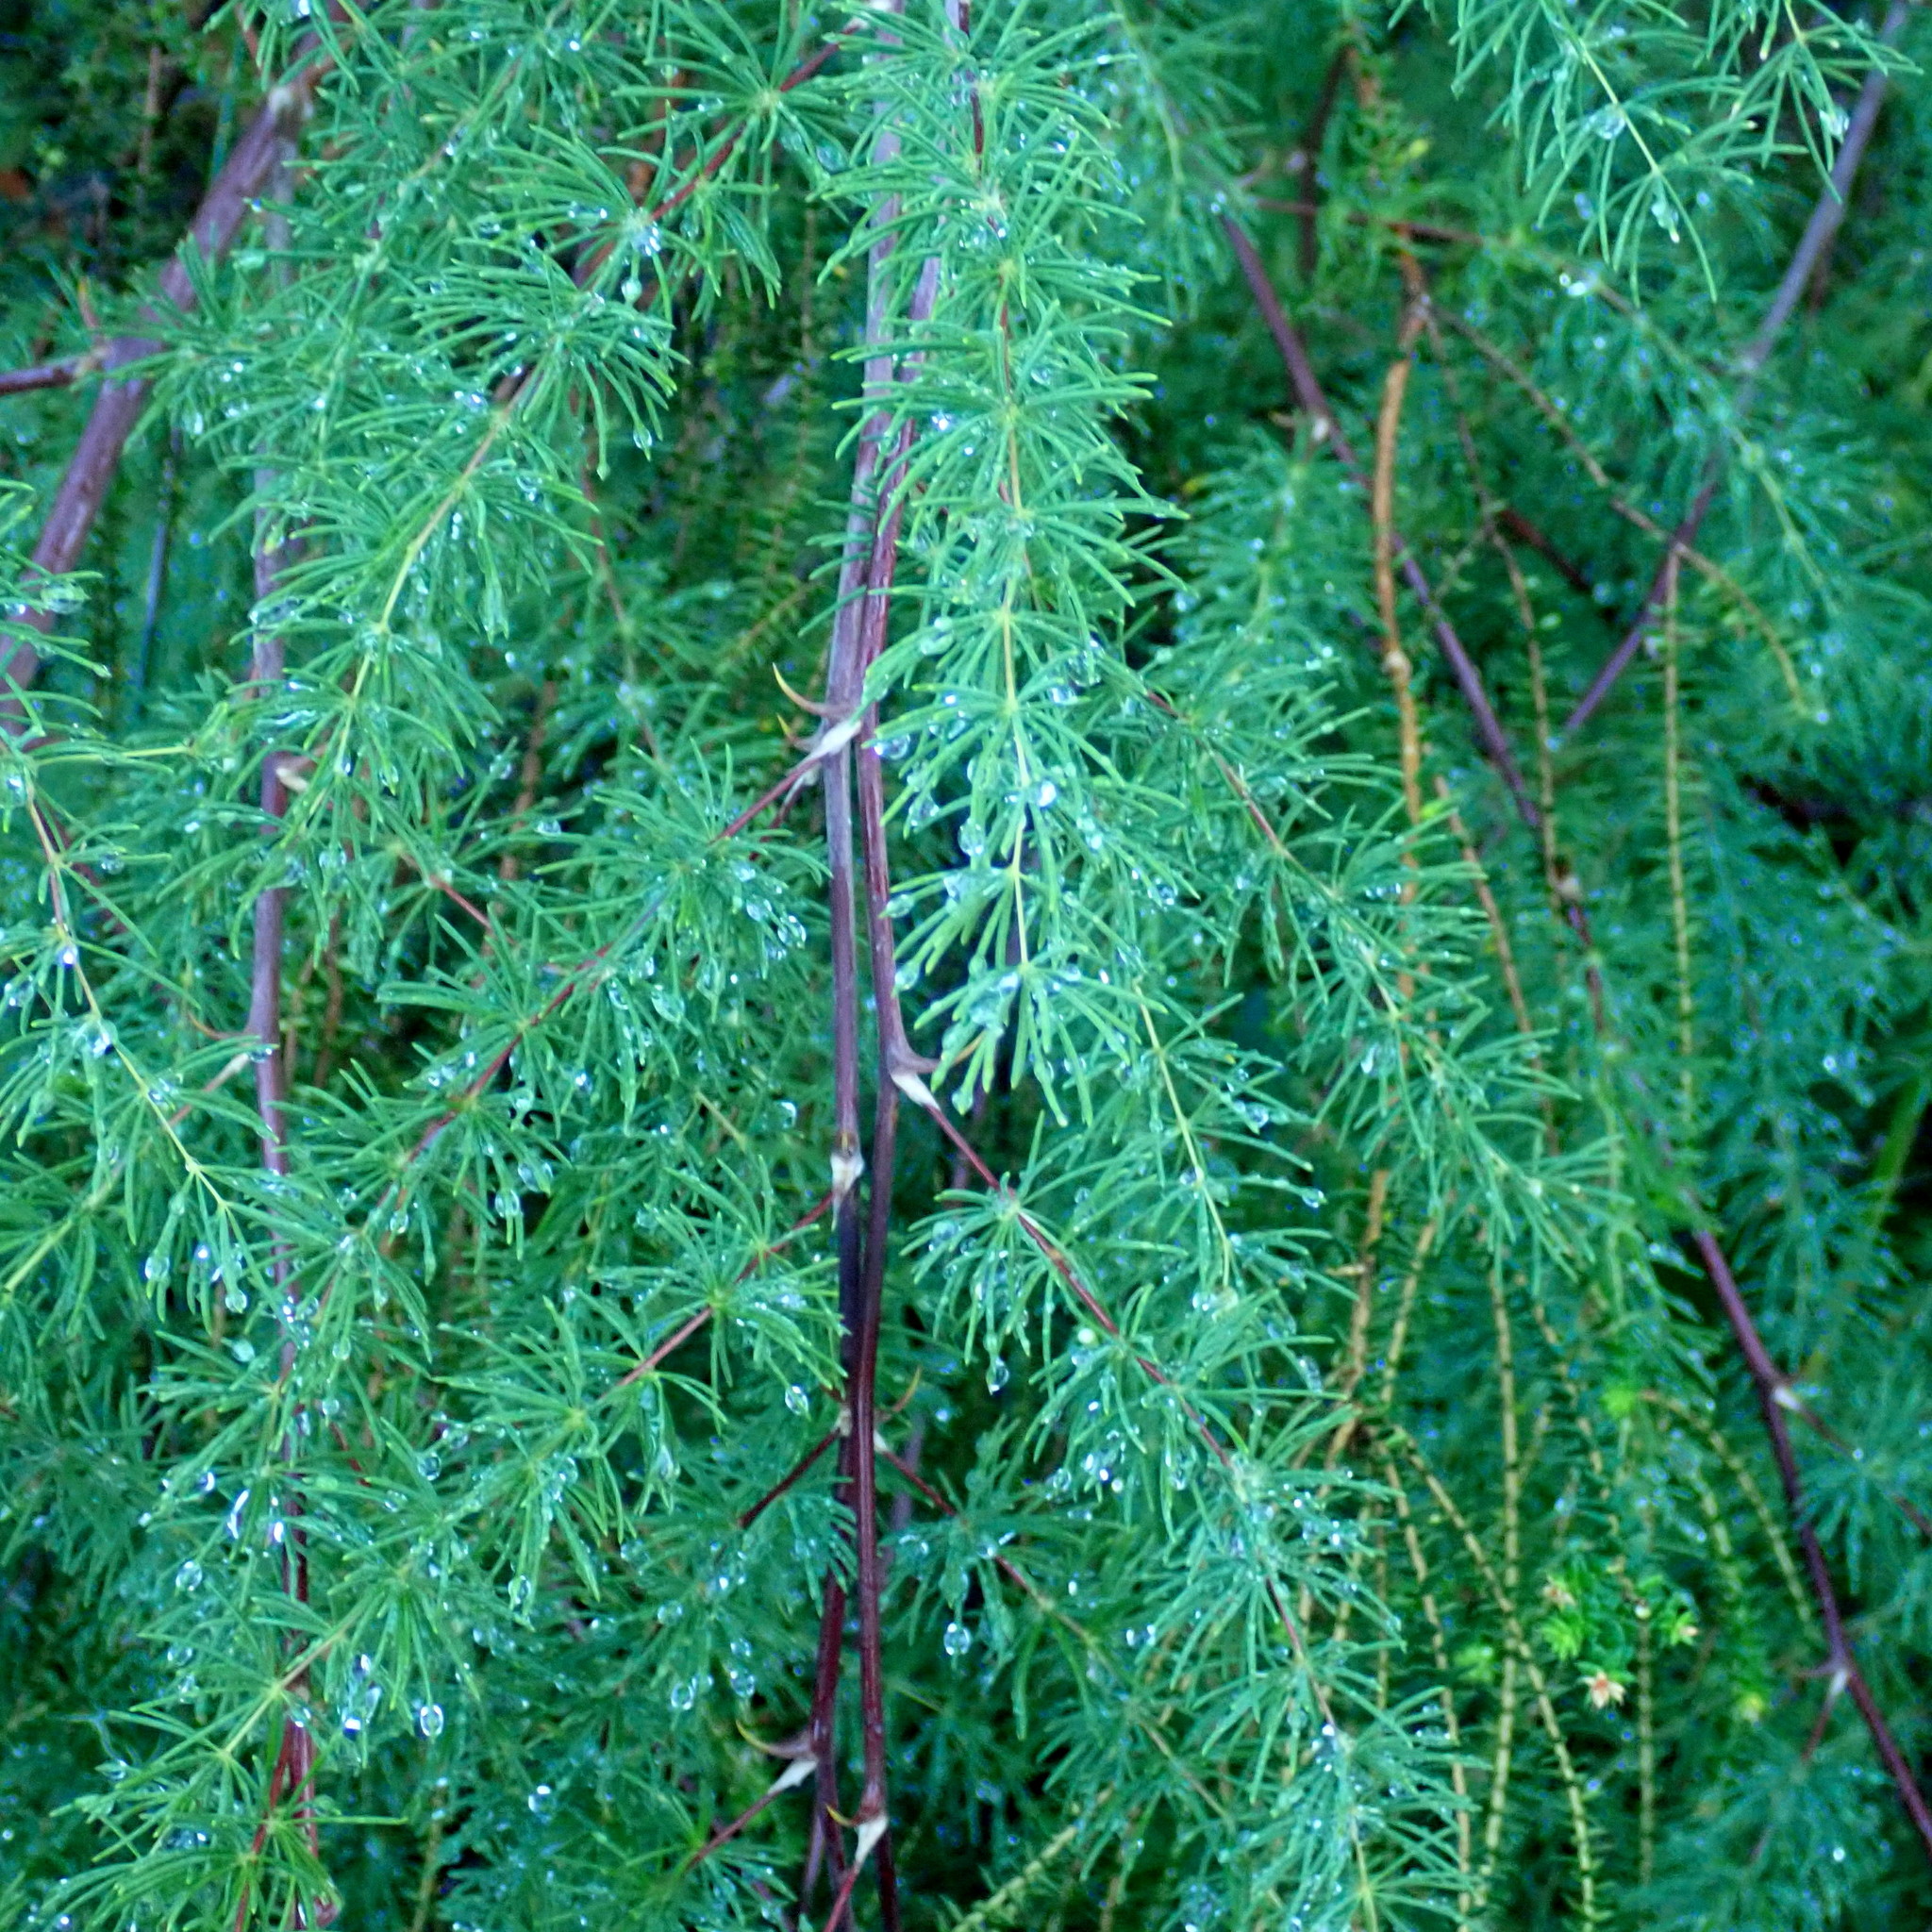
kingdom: Plantae
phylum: Tracheophyta
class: Liliopsida
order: Asparagales
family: Asparagaceae
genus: Asparagus
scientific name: Asparagus rubicundus
